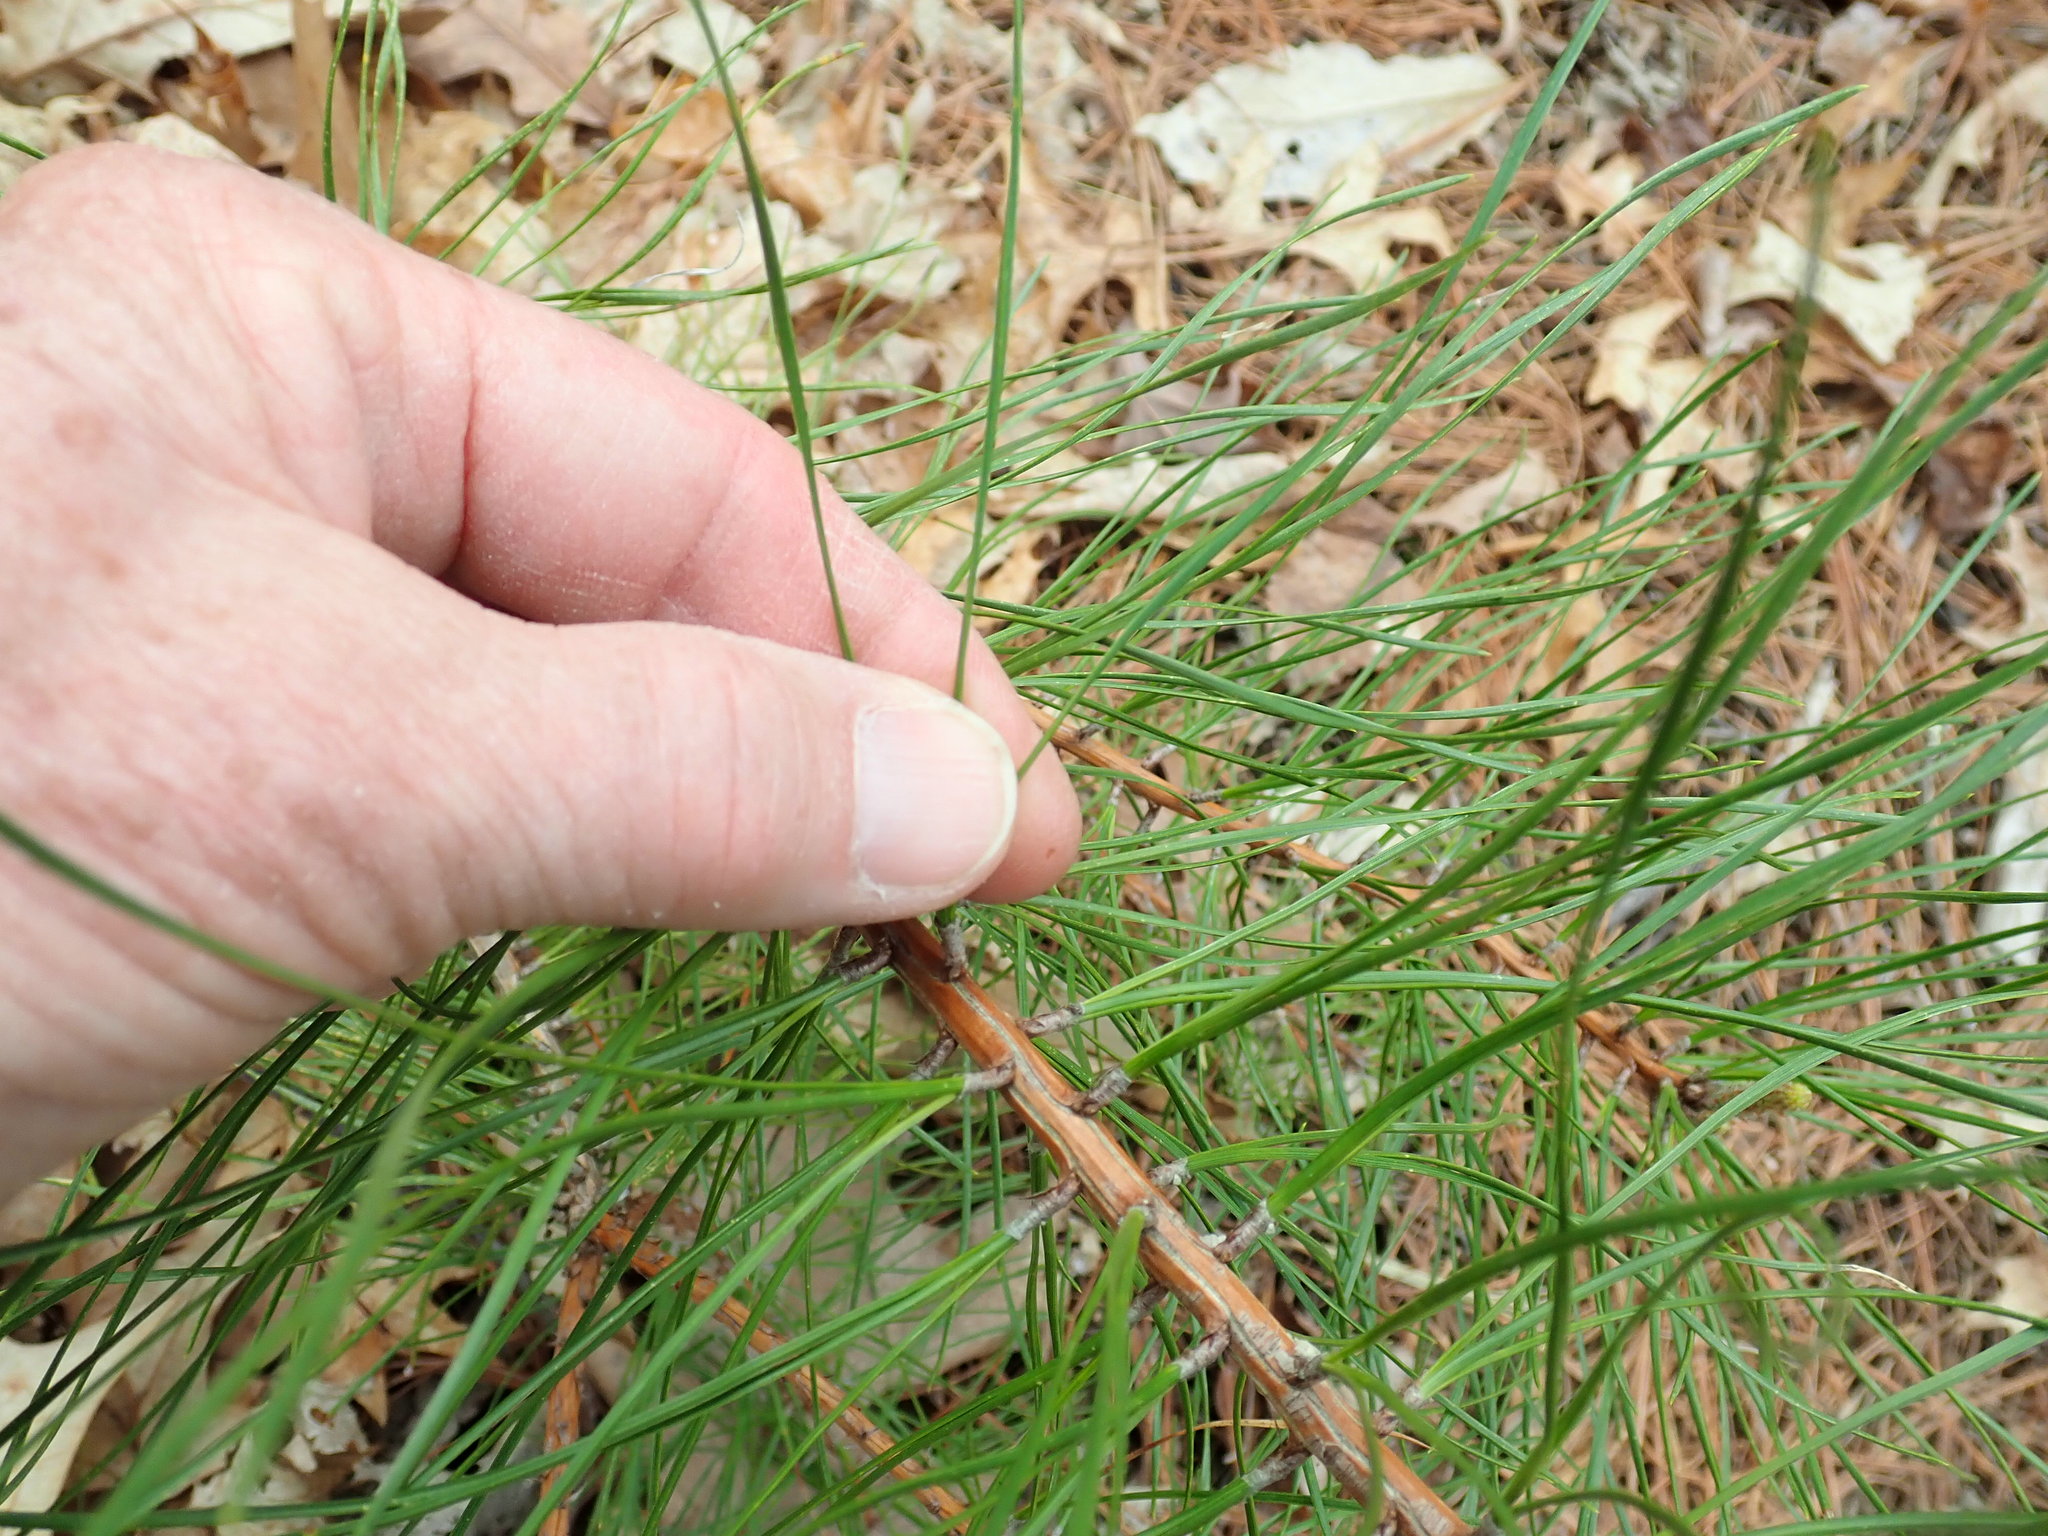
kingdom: Plantae
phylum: Tracheophyta
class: Pinopsida
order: Pinales
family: Pinaceae
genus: Pinus
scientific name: Pinus rigida
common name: Pitch pine
